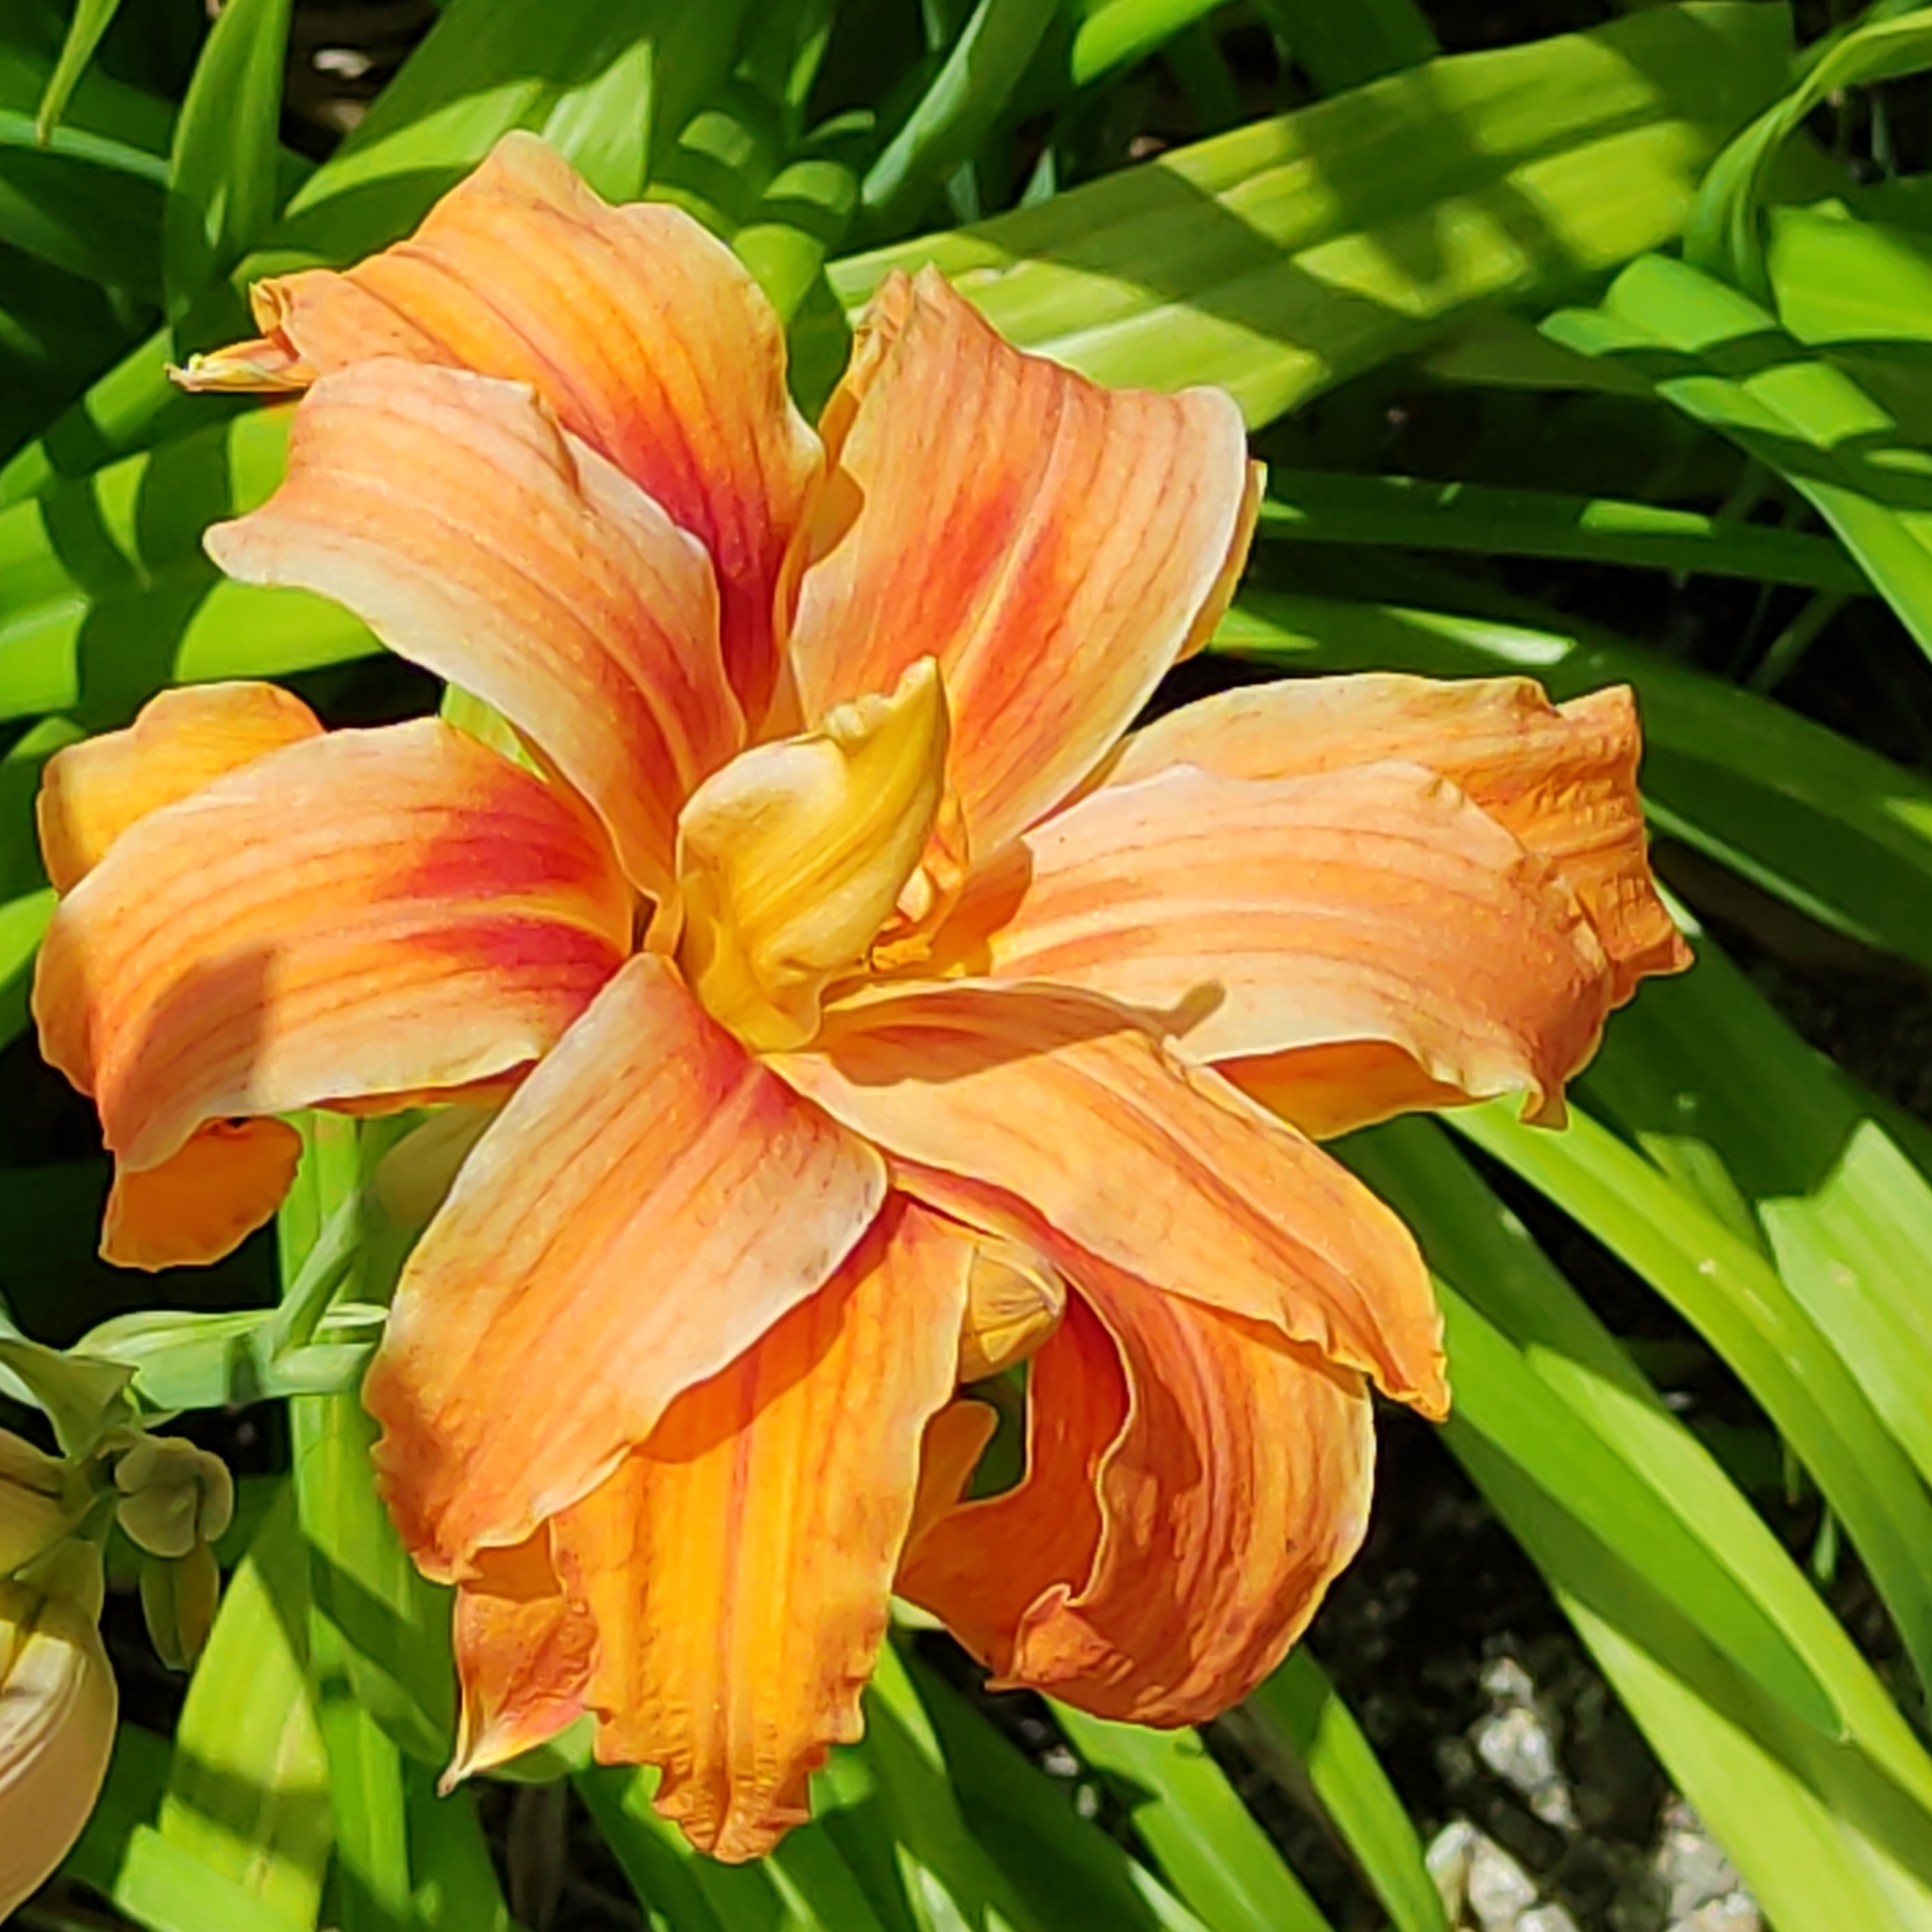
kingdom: Plantae
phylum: Tracheophyta
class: Liliopsida
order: Asparagales
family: Asphodelaceae
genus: Hemerocallis
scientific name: Hemerocallis fulva
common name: Orange day-lily
